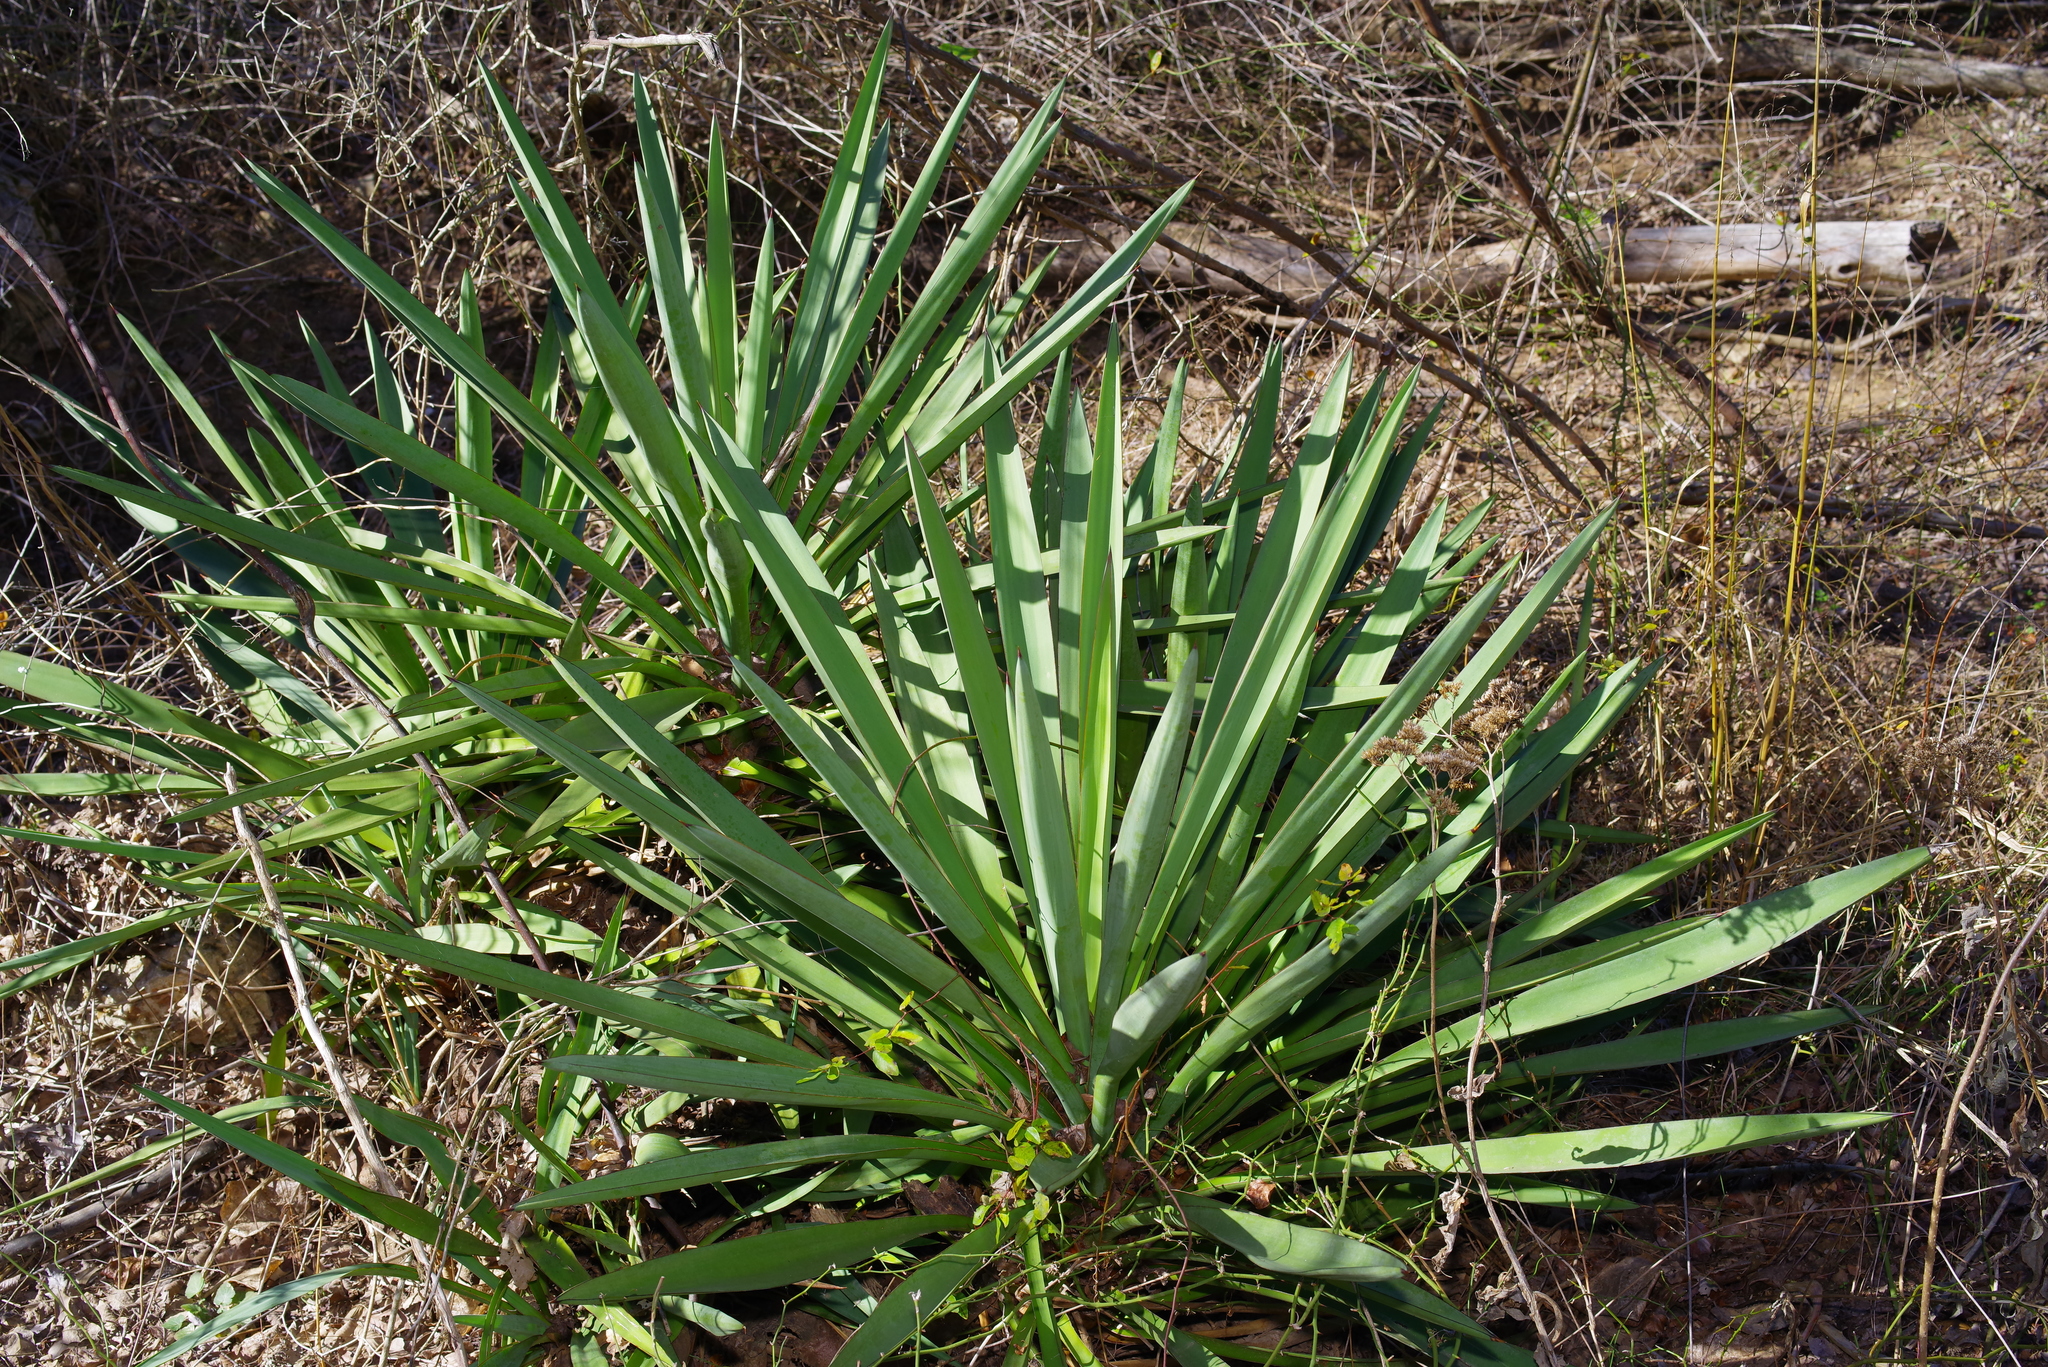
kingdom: Plantae
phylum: Tracheophyta
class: Liliopsida
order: Asparagales
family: Asparagaceae
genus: Yucca
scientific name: Yucca treculiana
